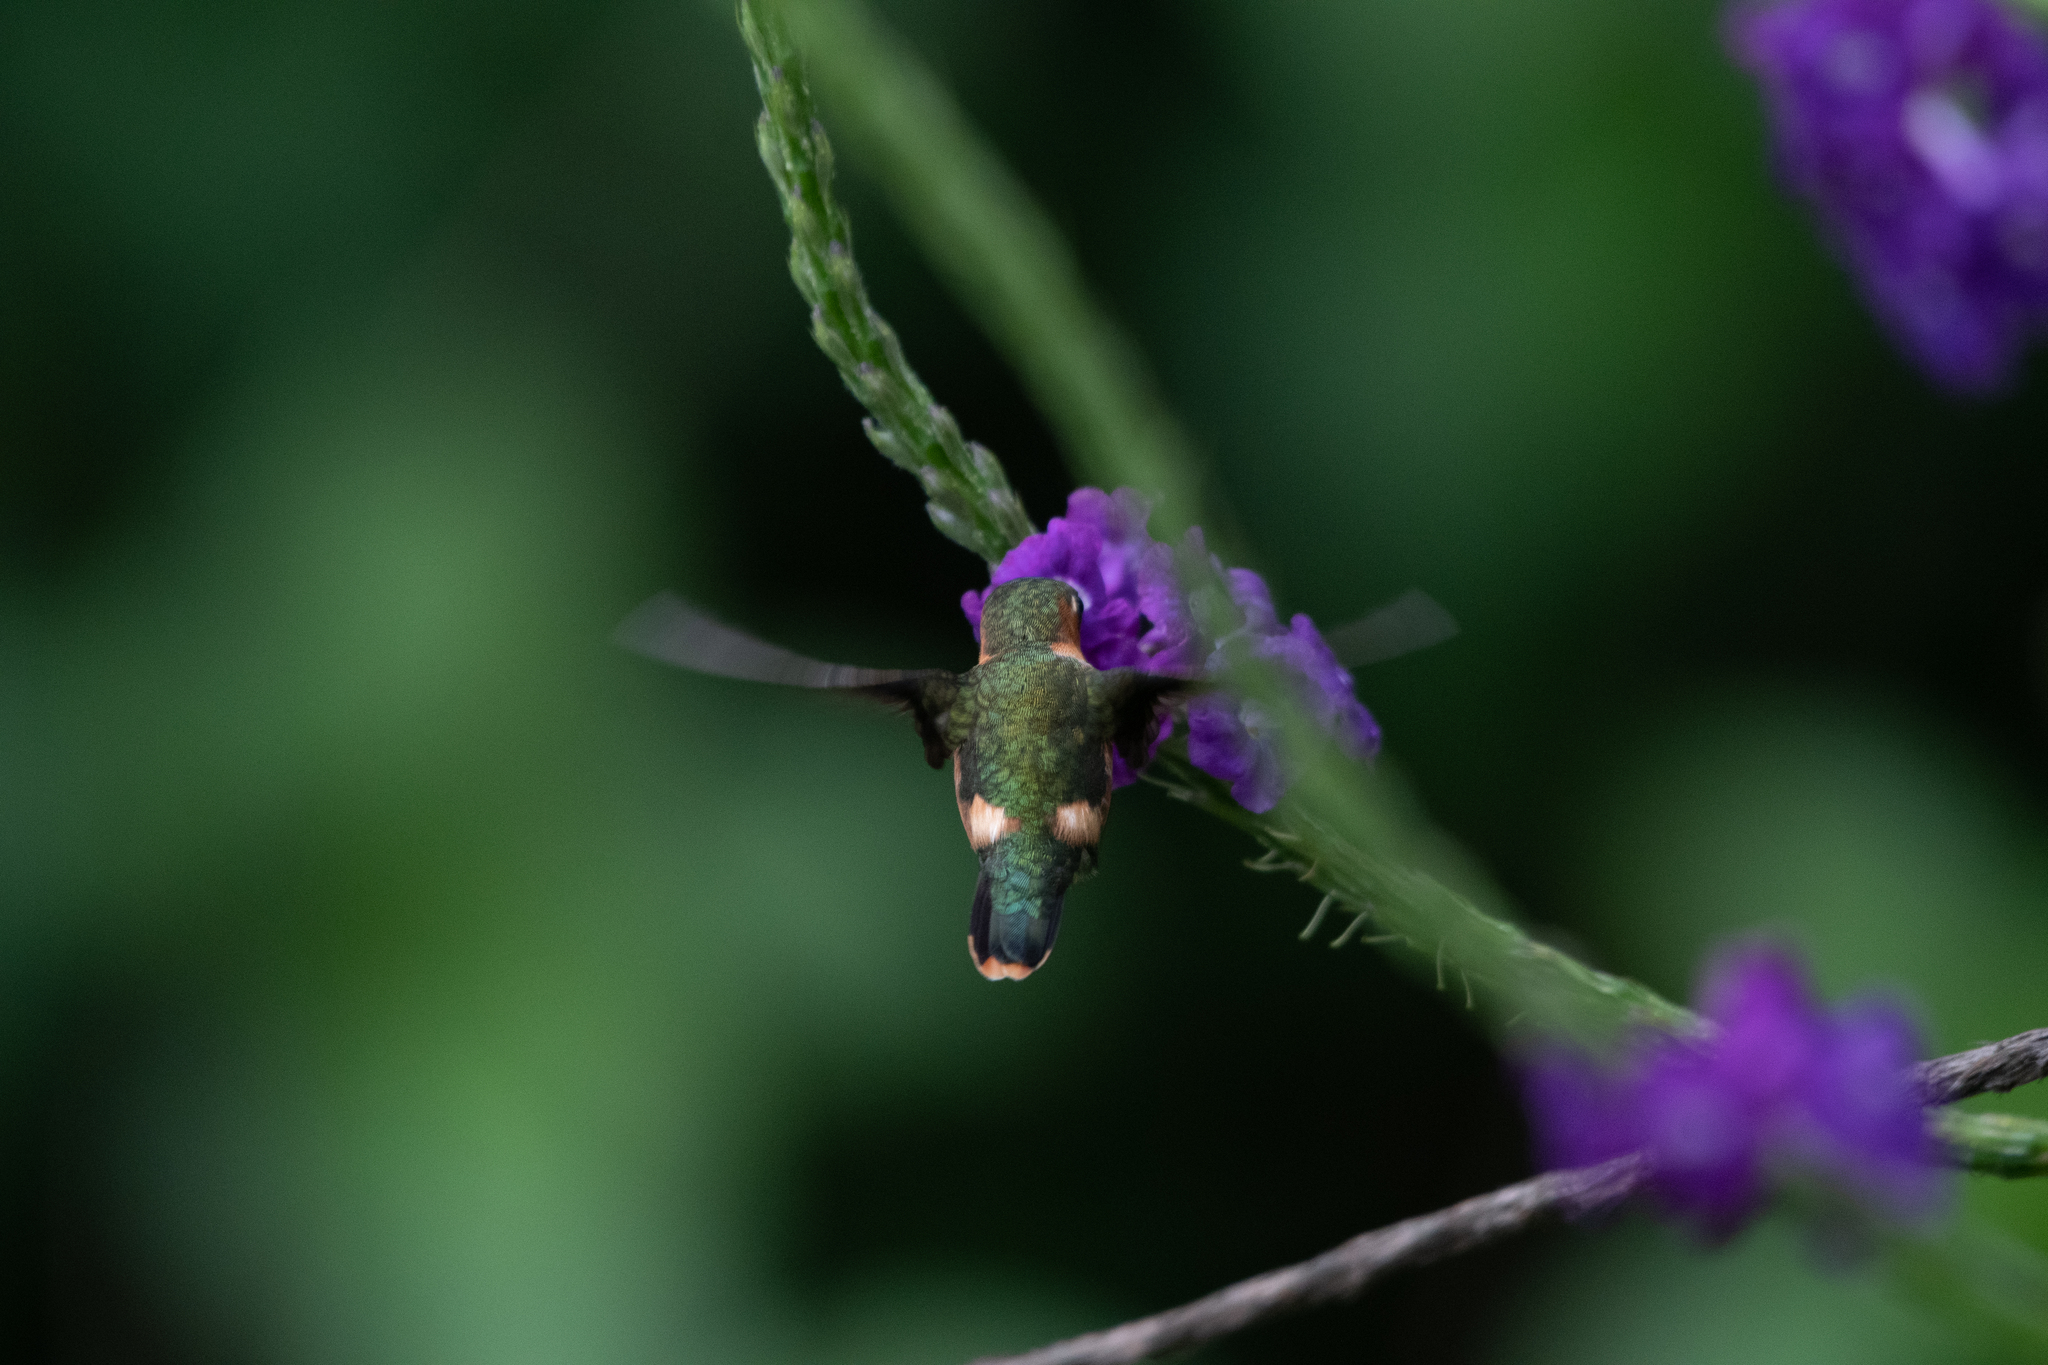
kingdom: Animalia
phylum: Chordata
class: Aves
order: Apodiformes
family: Trochilidae
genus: Tilmatura
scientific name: Tilmatura dupontii
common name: Sparkling-tailed woodstar
